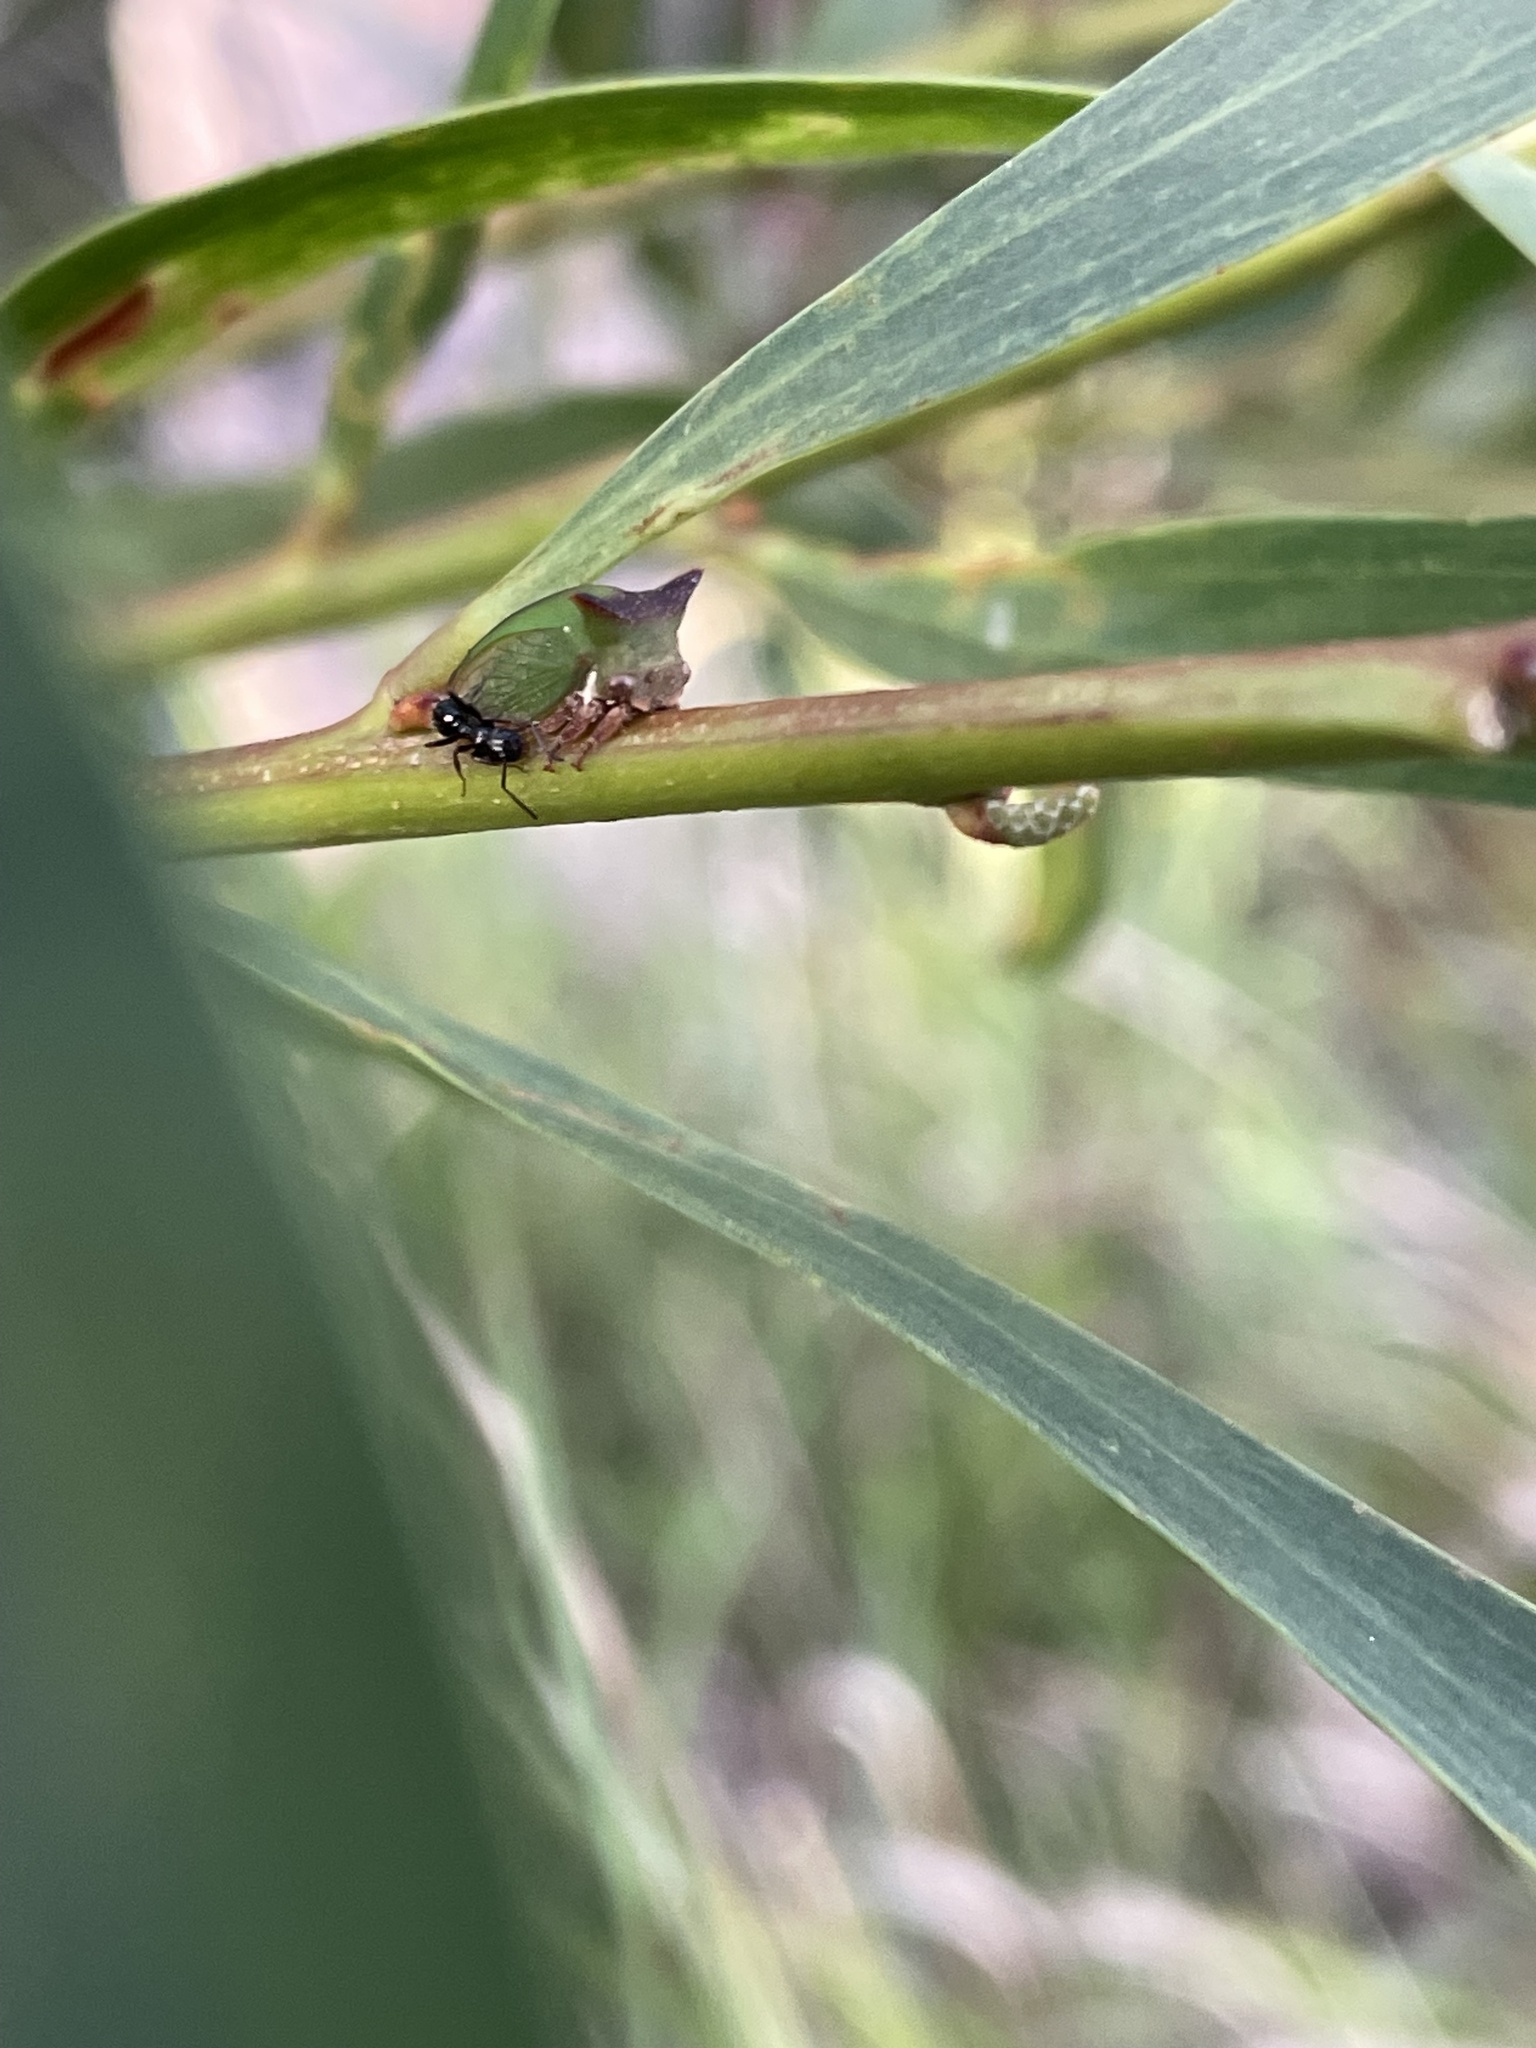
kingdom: Animalia
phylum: Arthropoda
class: Insecta
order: Hemiptera
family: Membracidae
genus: Sextius
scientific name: Sextius virescens
